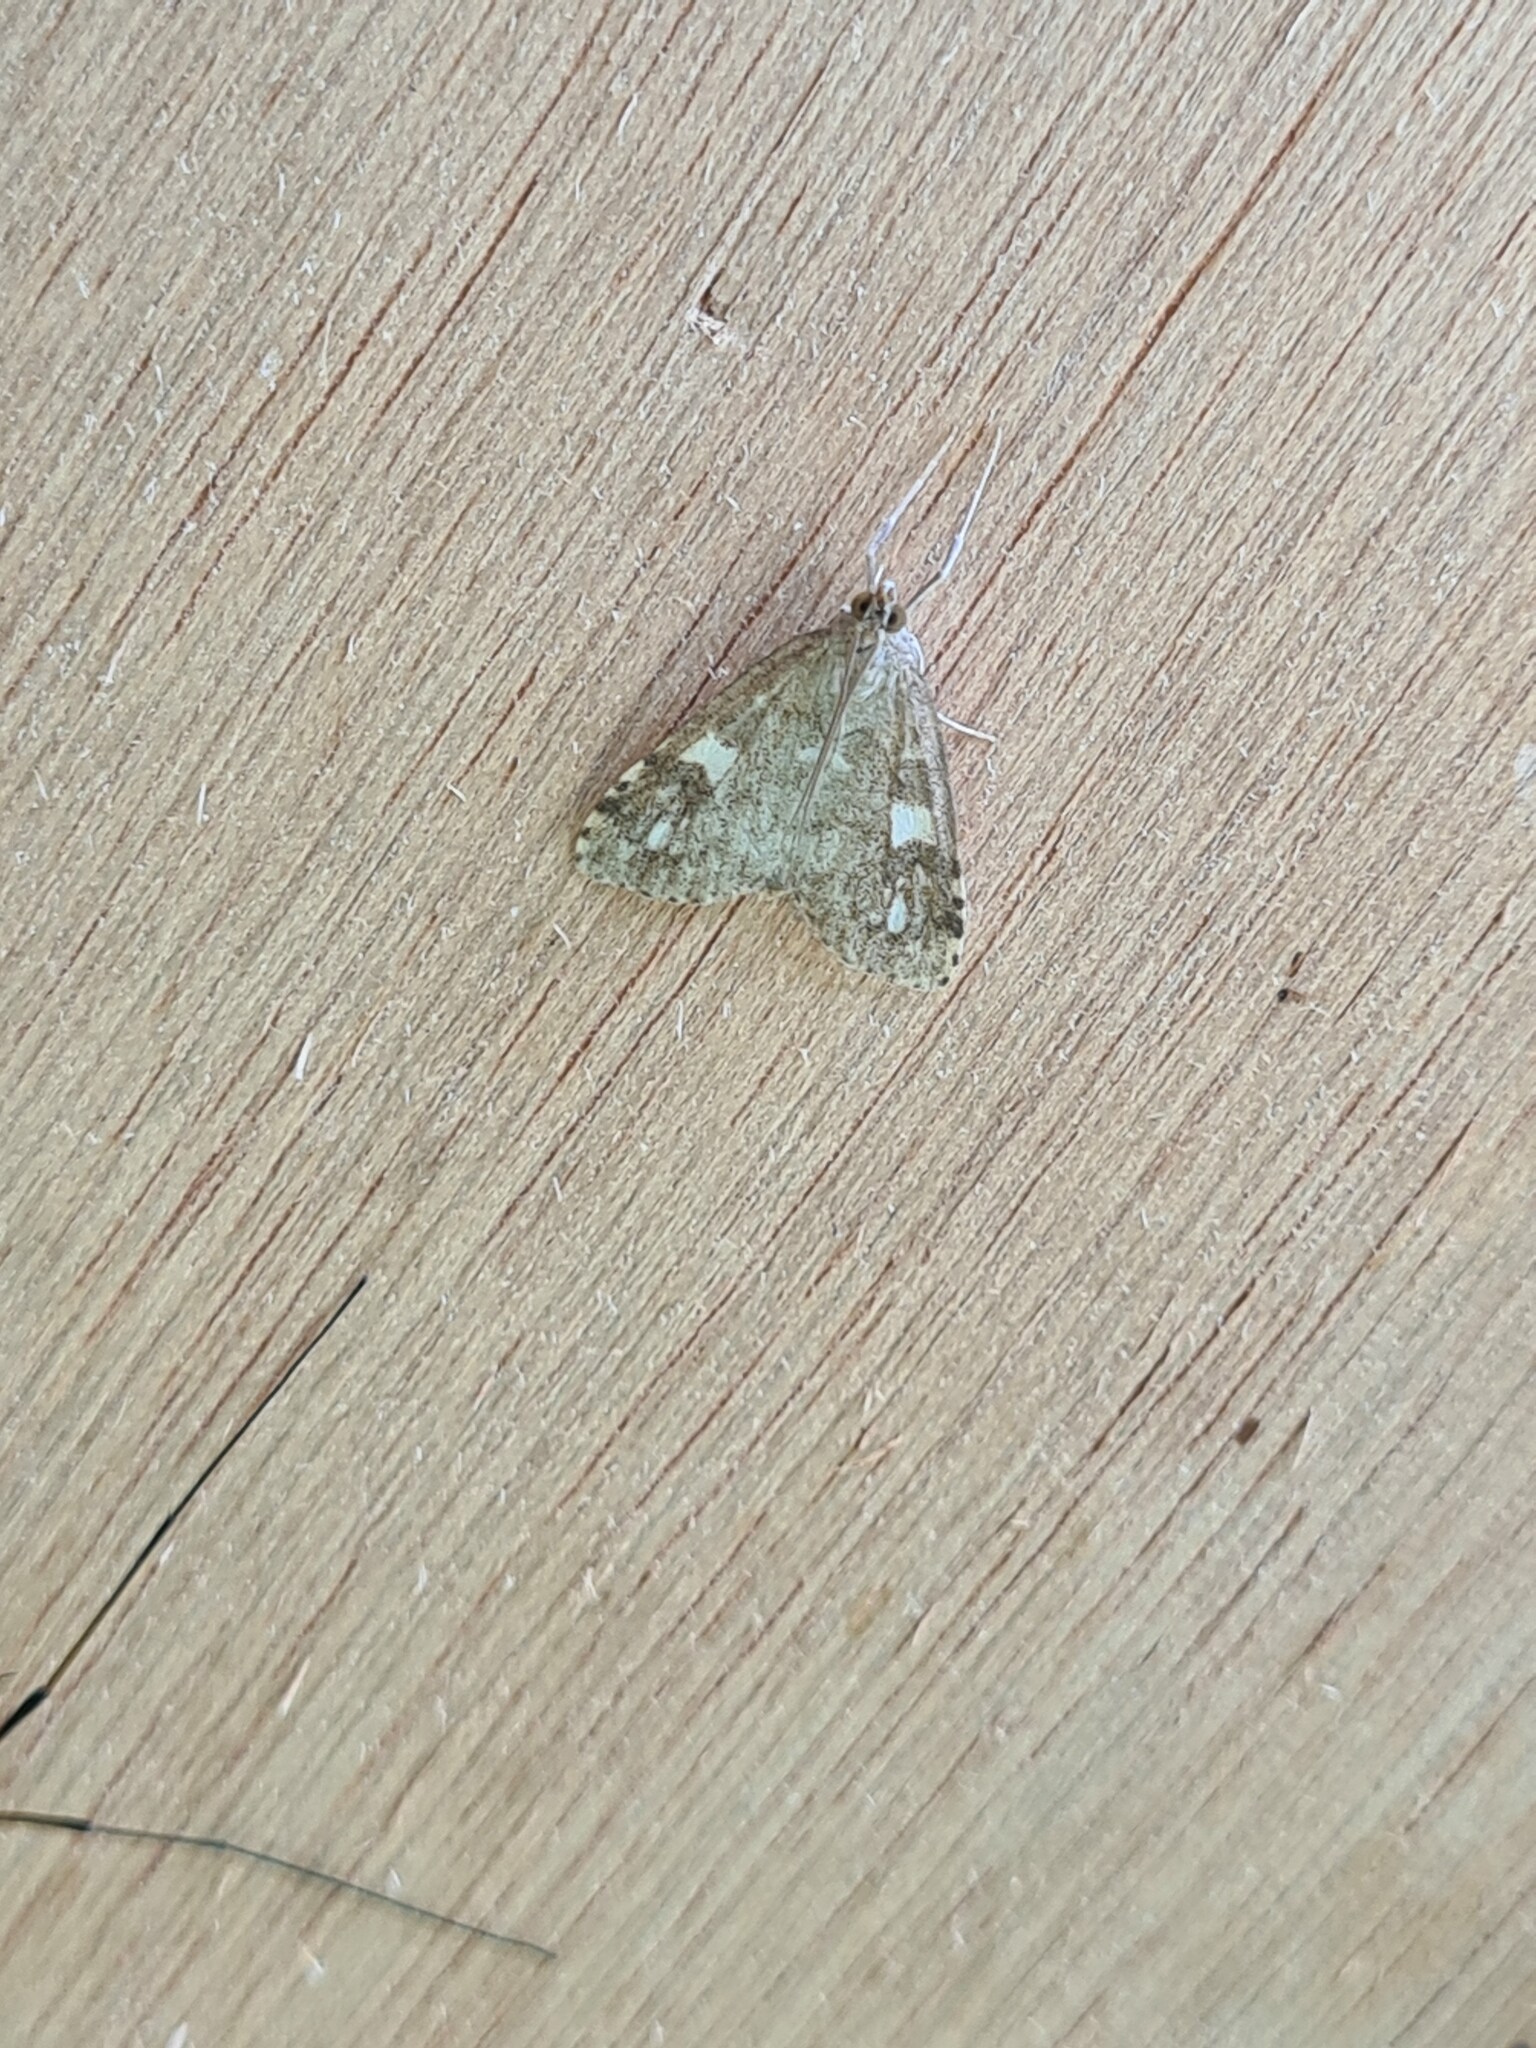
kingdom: Animalia
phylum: Arthropoda
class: Insecta
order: Lepidoptera
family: Crambidae
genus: Udea
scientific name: Udea olivalis
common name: Olive pearl
